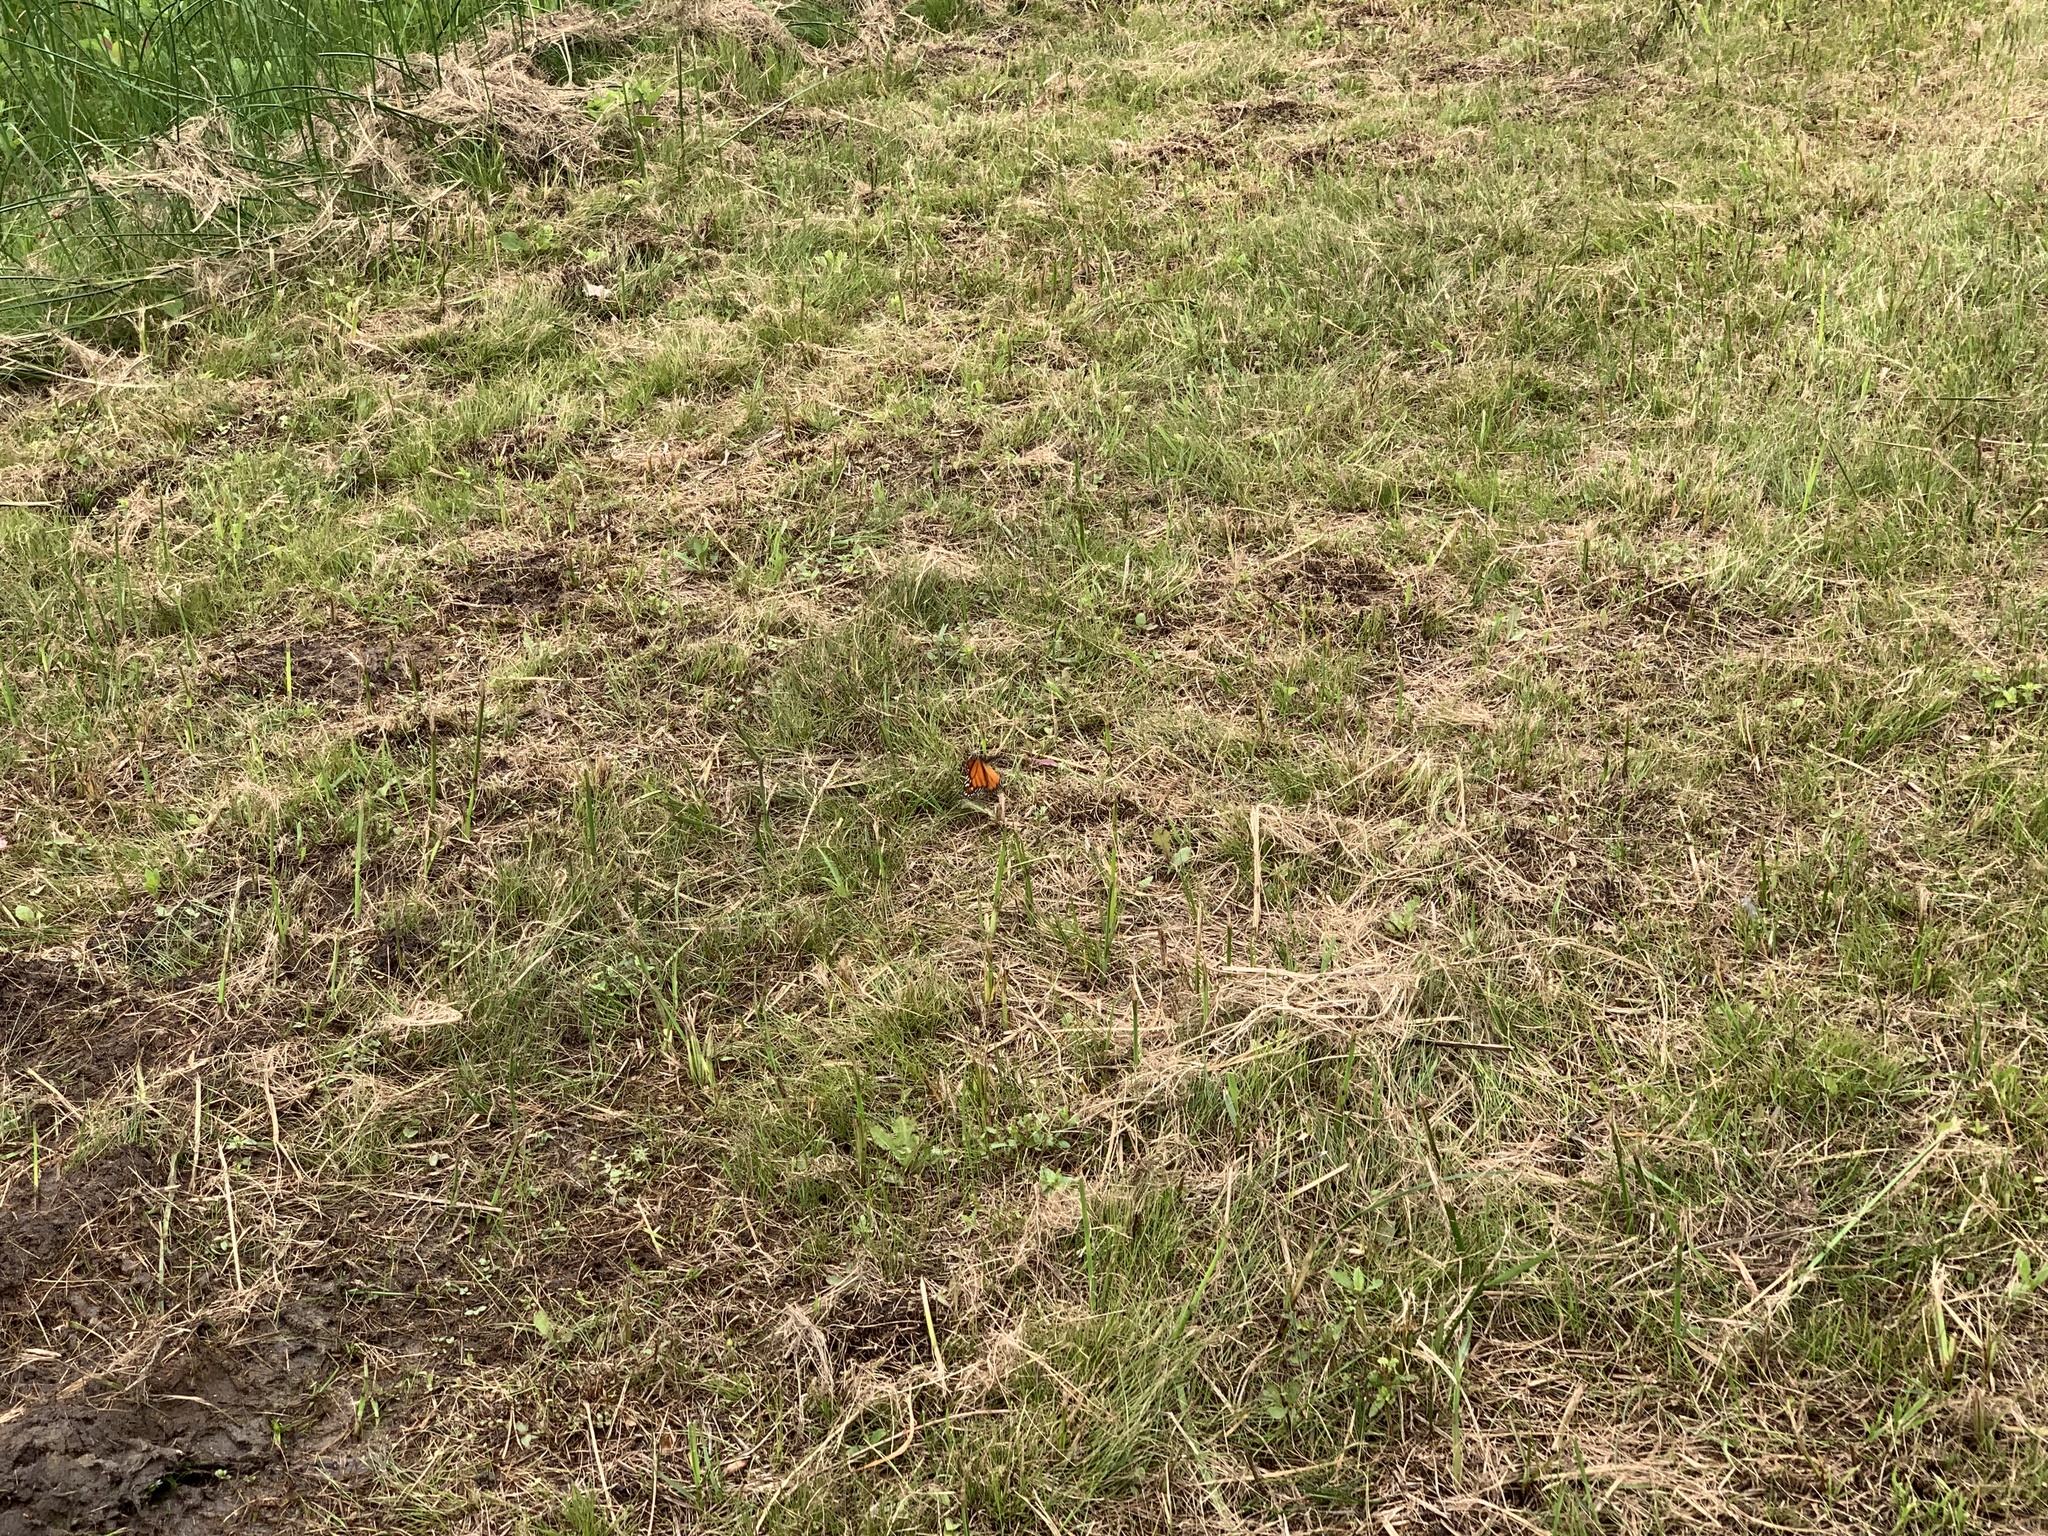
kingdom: Animalia
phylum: Arthropoda
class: Insecta
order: Lepidoptera
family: Nymphalidae
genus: Danaus
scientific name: Danaus plexippus
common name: Monarch
